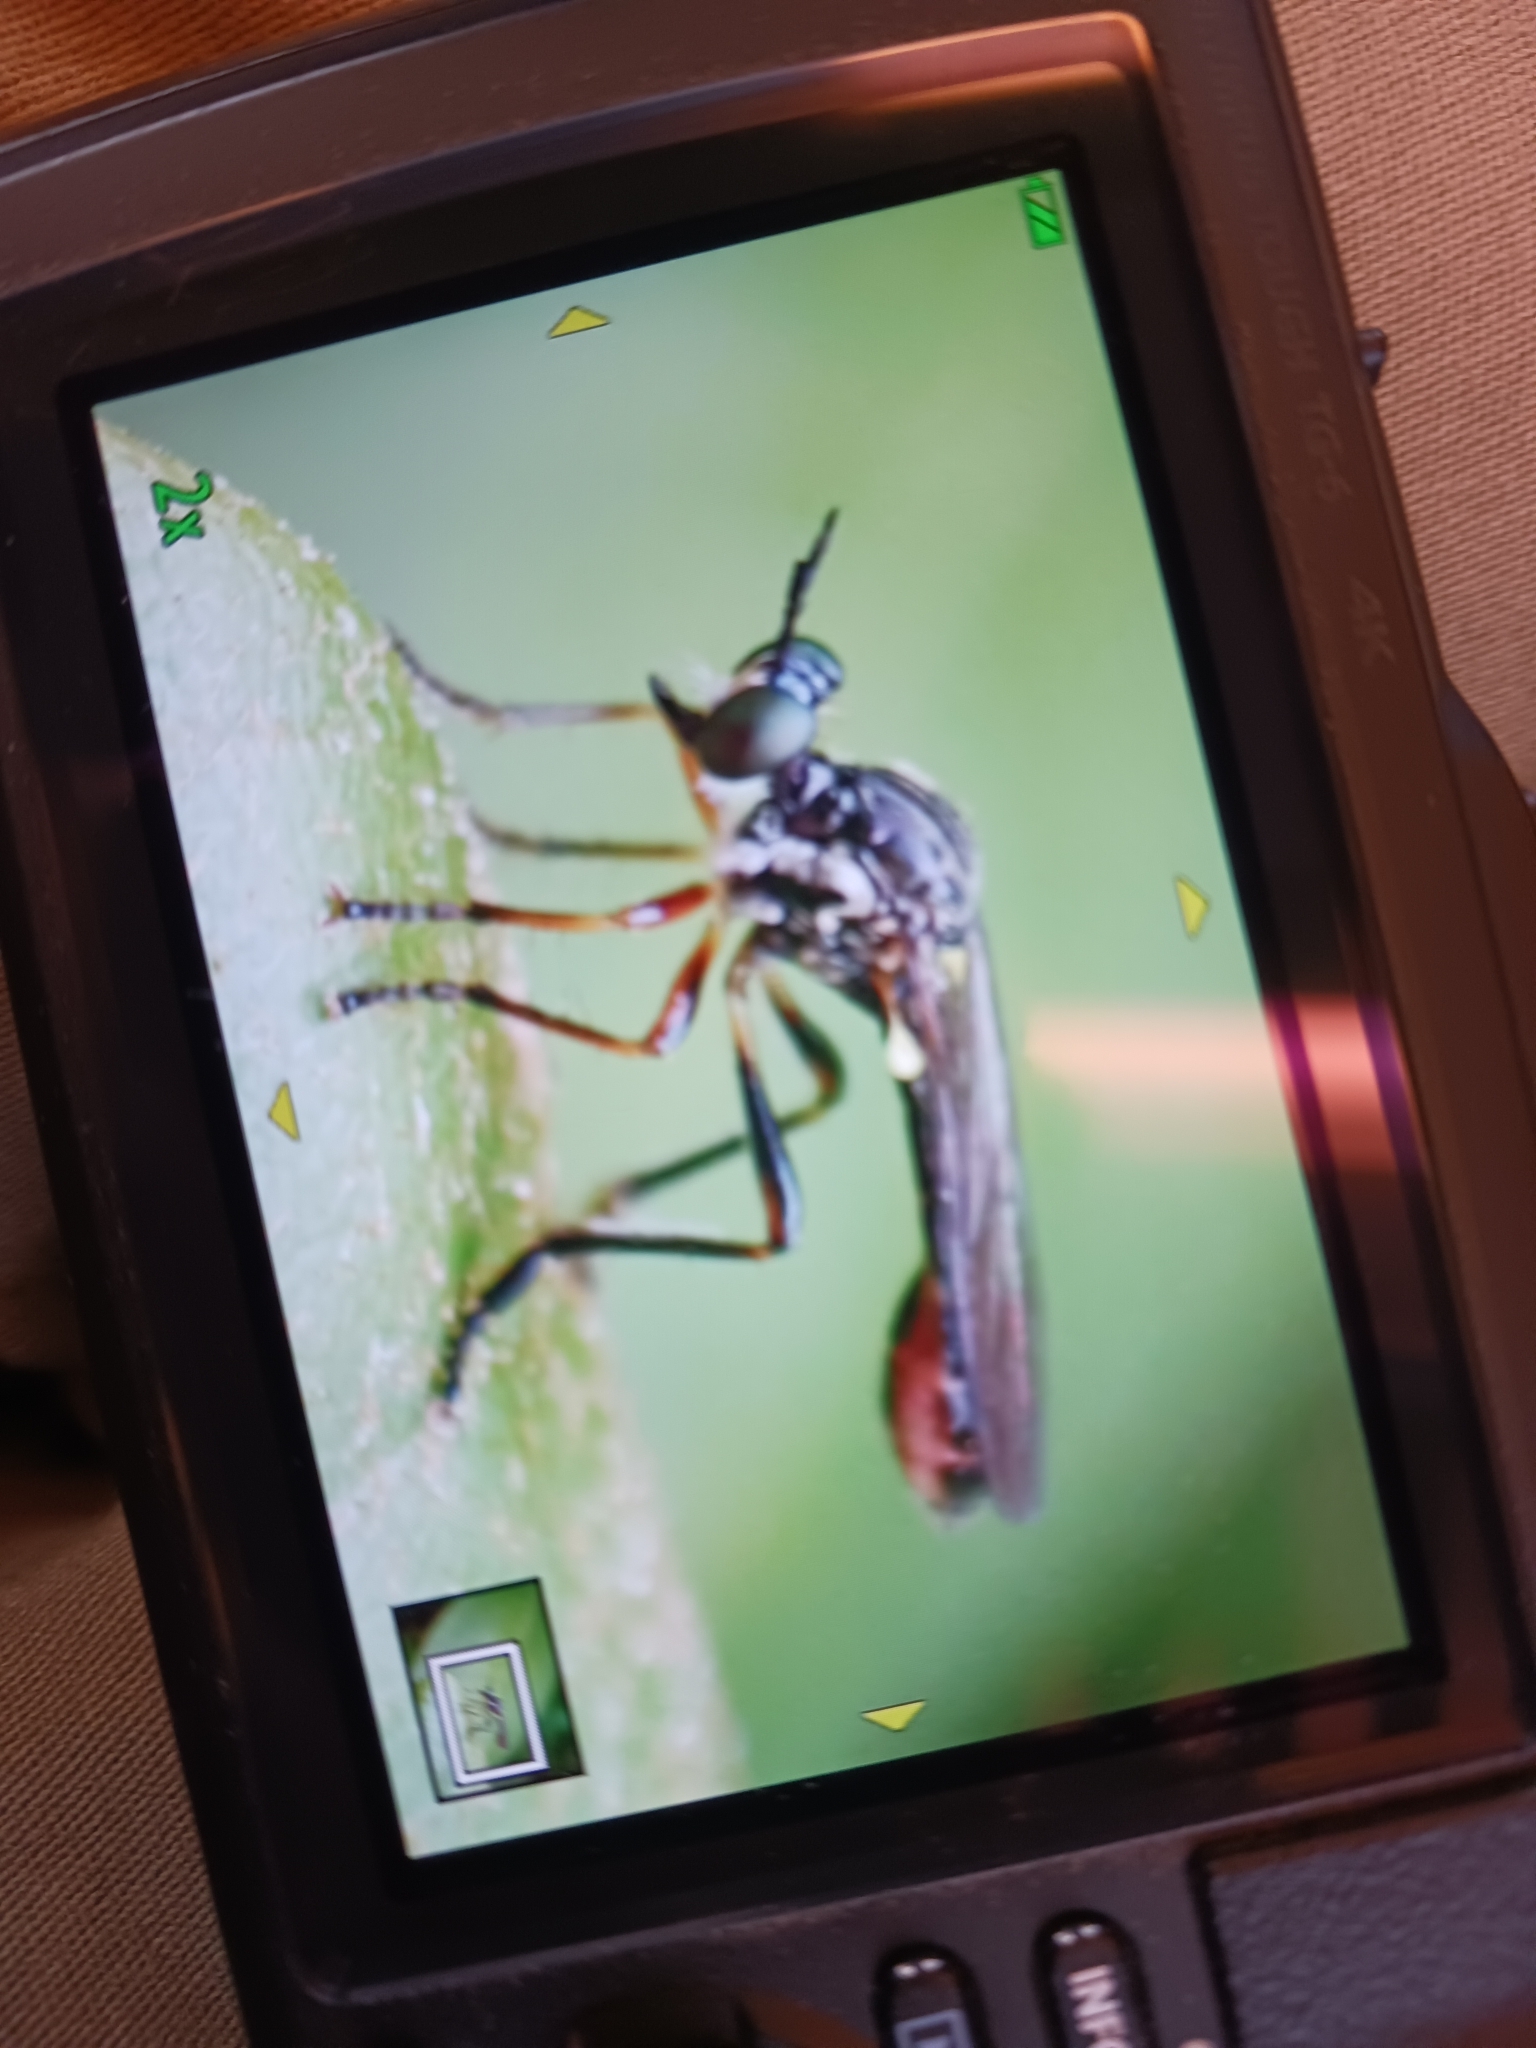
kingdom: Animalia
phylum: Arthropoda
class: Insecta
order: Diptera
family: Asilidae
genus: Dioctria
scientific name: Dioctria hyalipennis
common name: Stripe-legged robberfly
